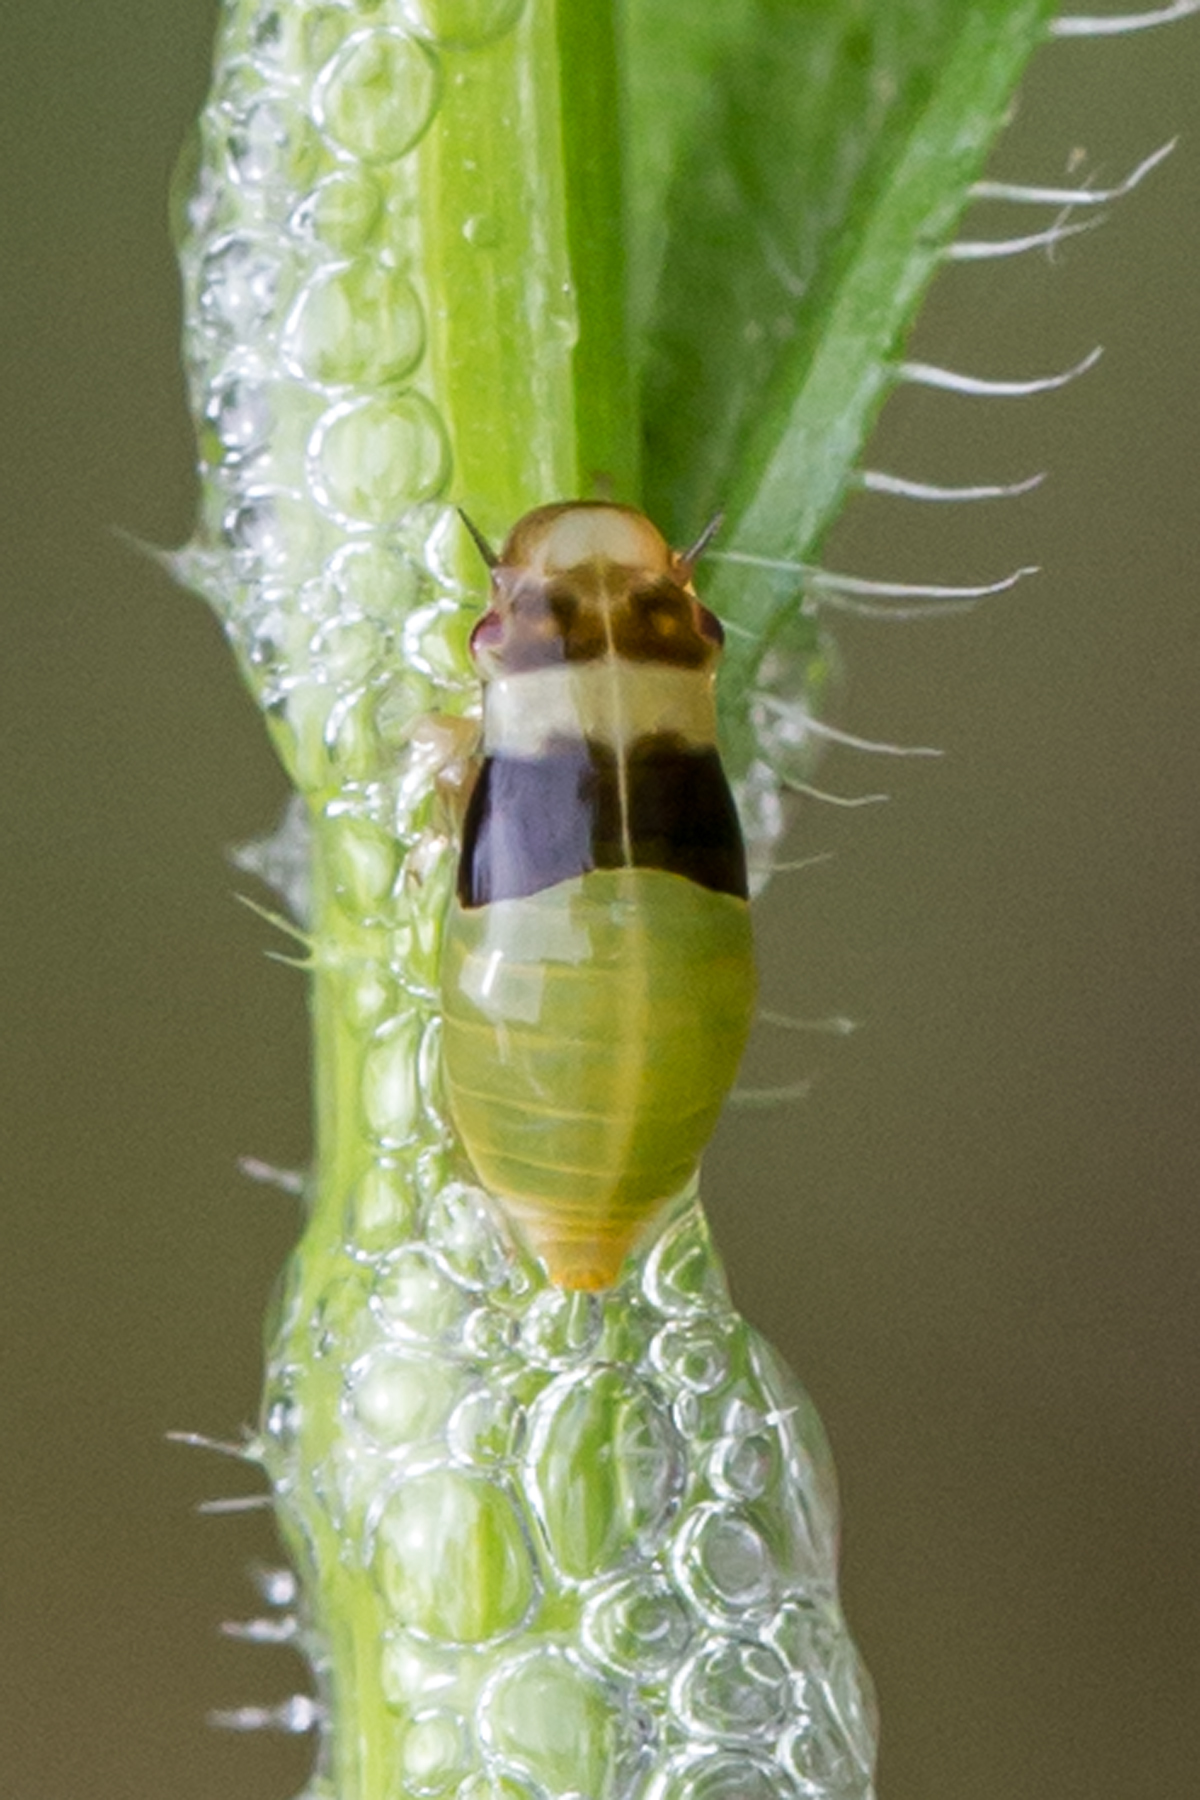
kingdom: Animalia
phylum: Arthropoda
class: Insecta
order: Hemiptera
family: Aphrophoridae
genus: Lepyronia
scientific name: Lepyronia quadrangularis
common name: Diamond-backed spittlebug
